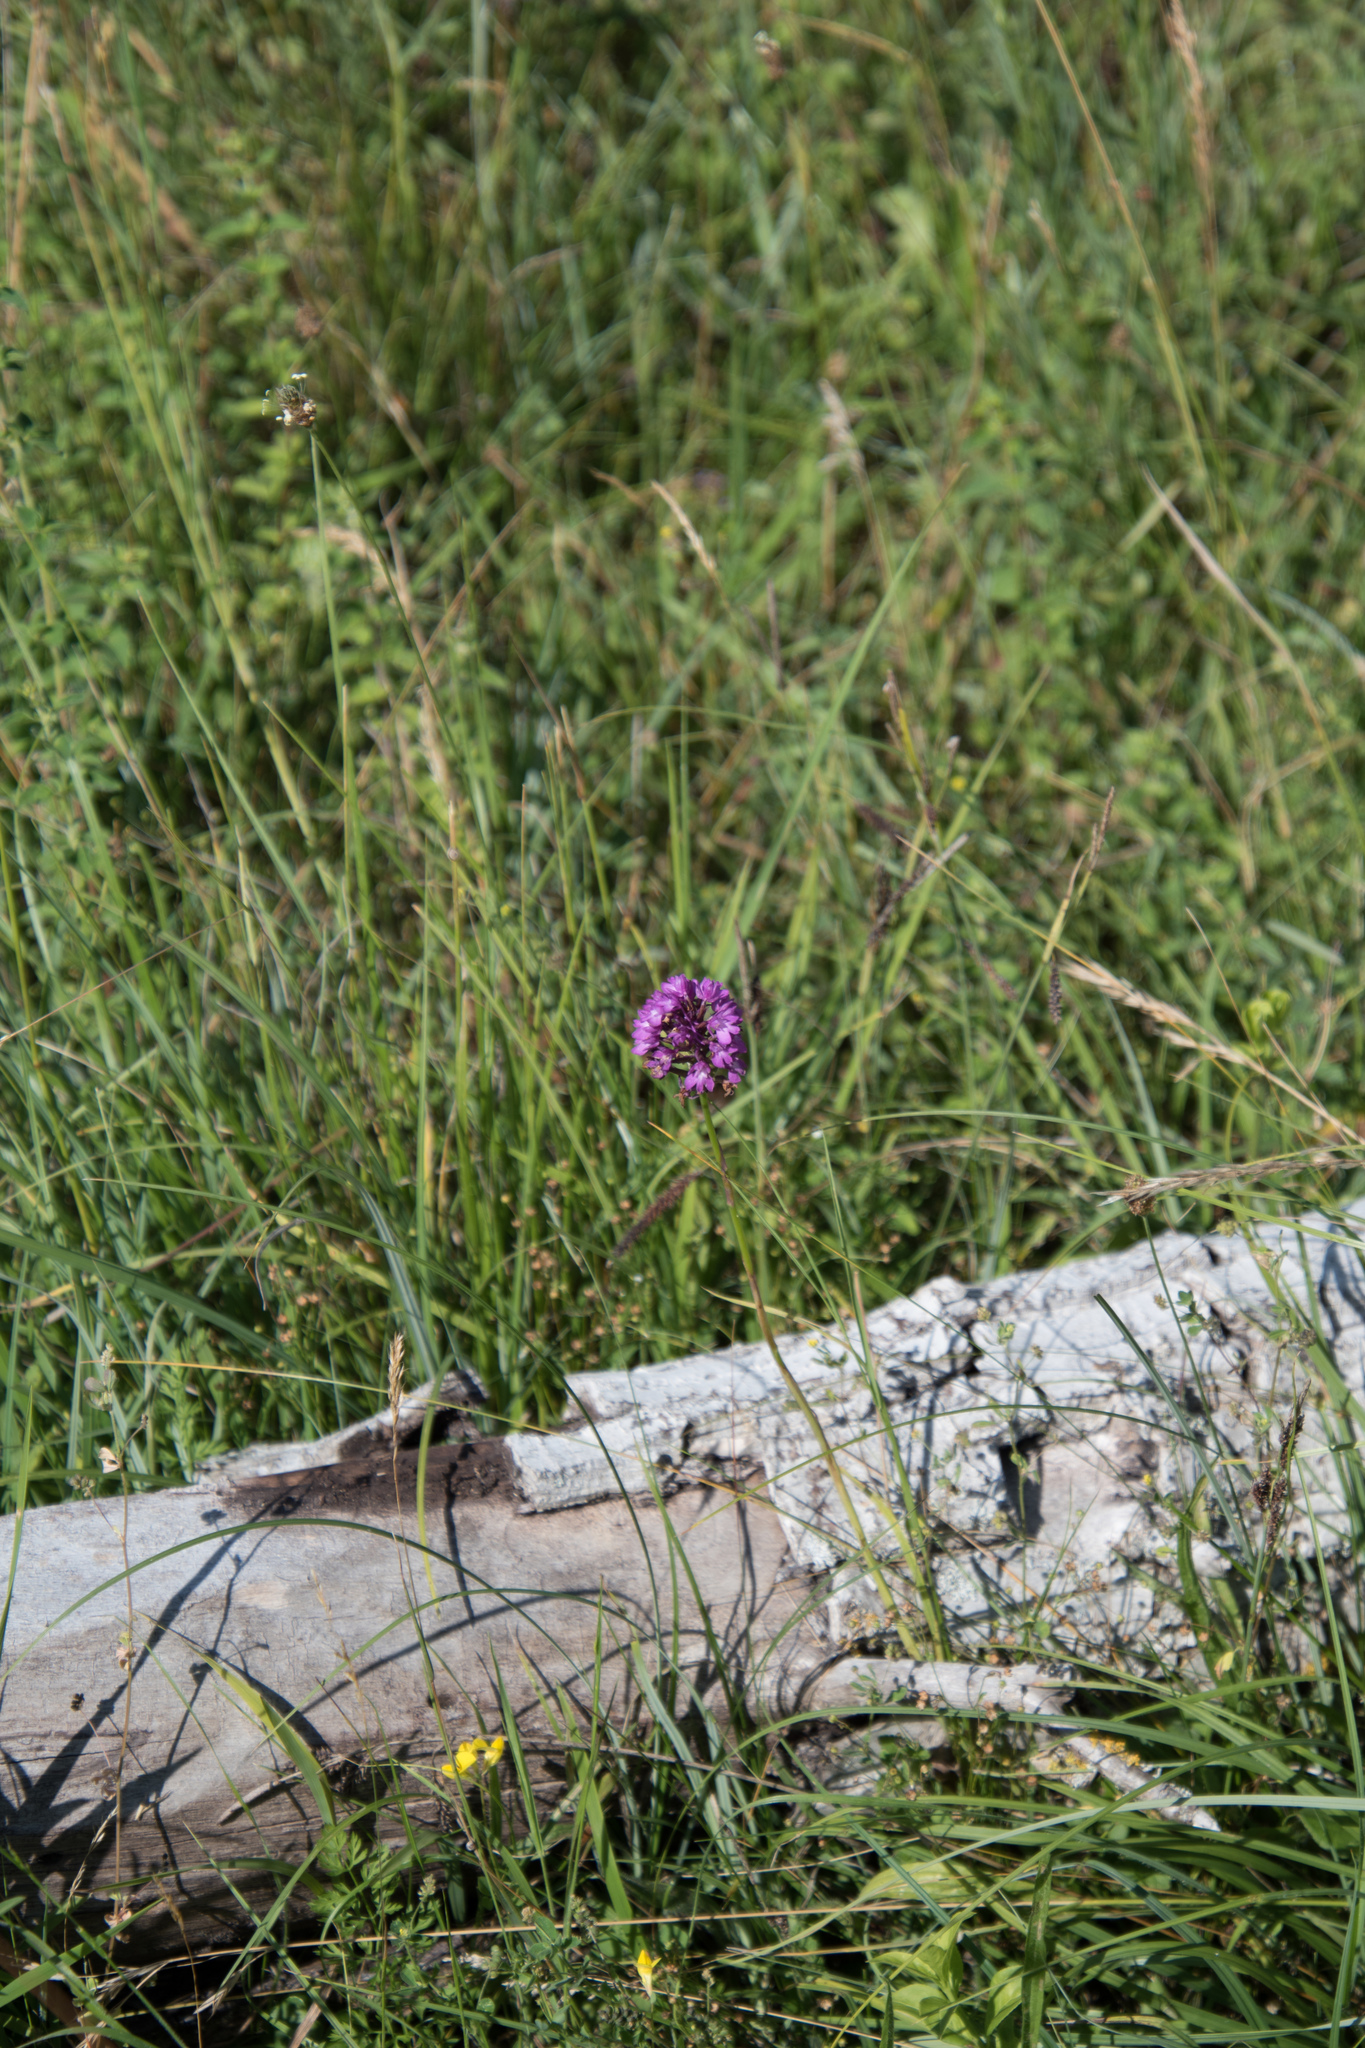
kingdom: Plantae
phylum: Tracheophyta
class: Liliopsida
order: Asparagales
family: Orchidaceae
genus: Anacamptis
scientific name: Anacamptis pyramidalis
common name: Pyramidal orchid
